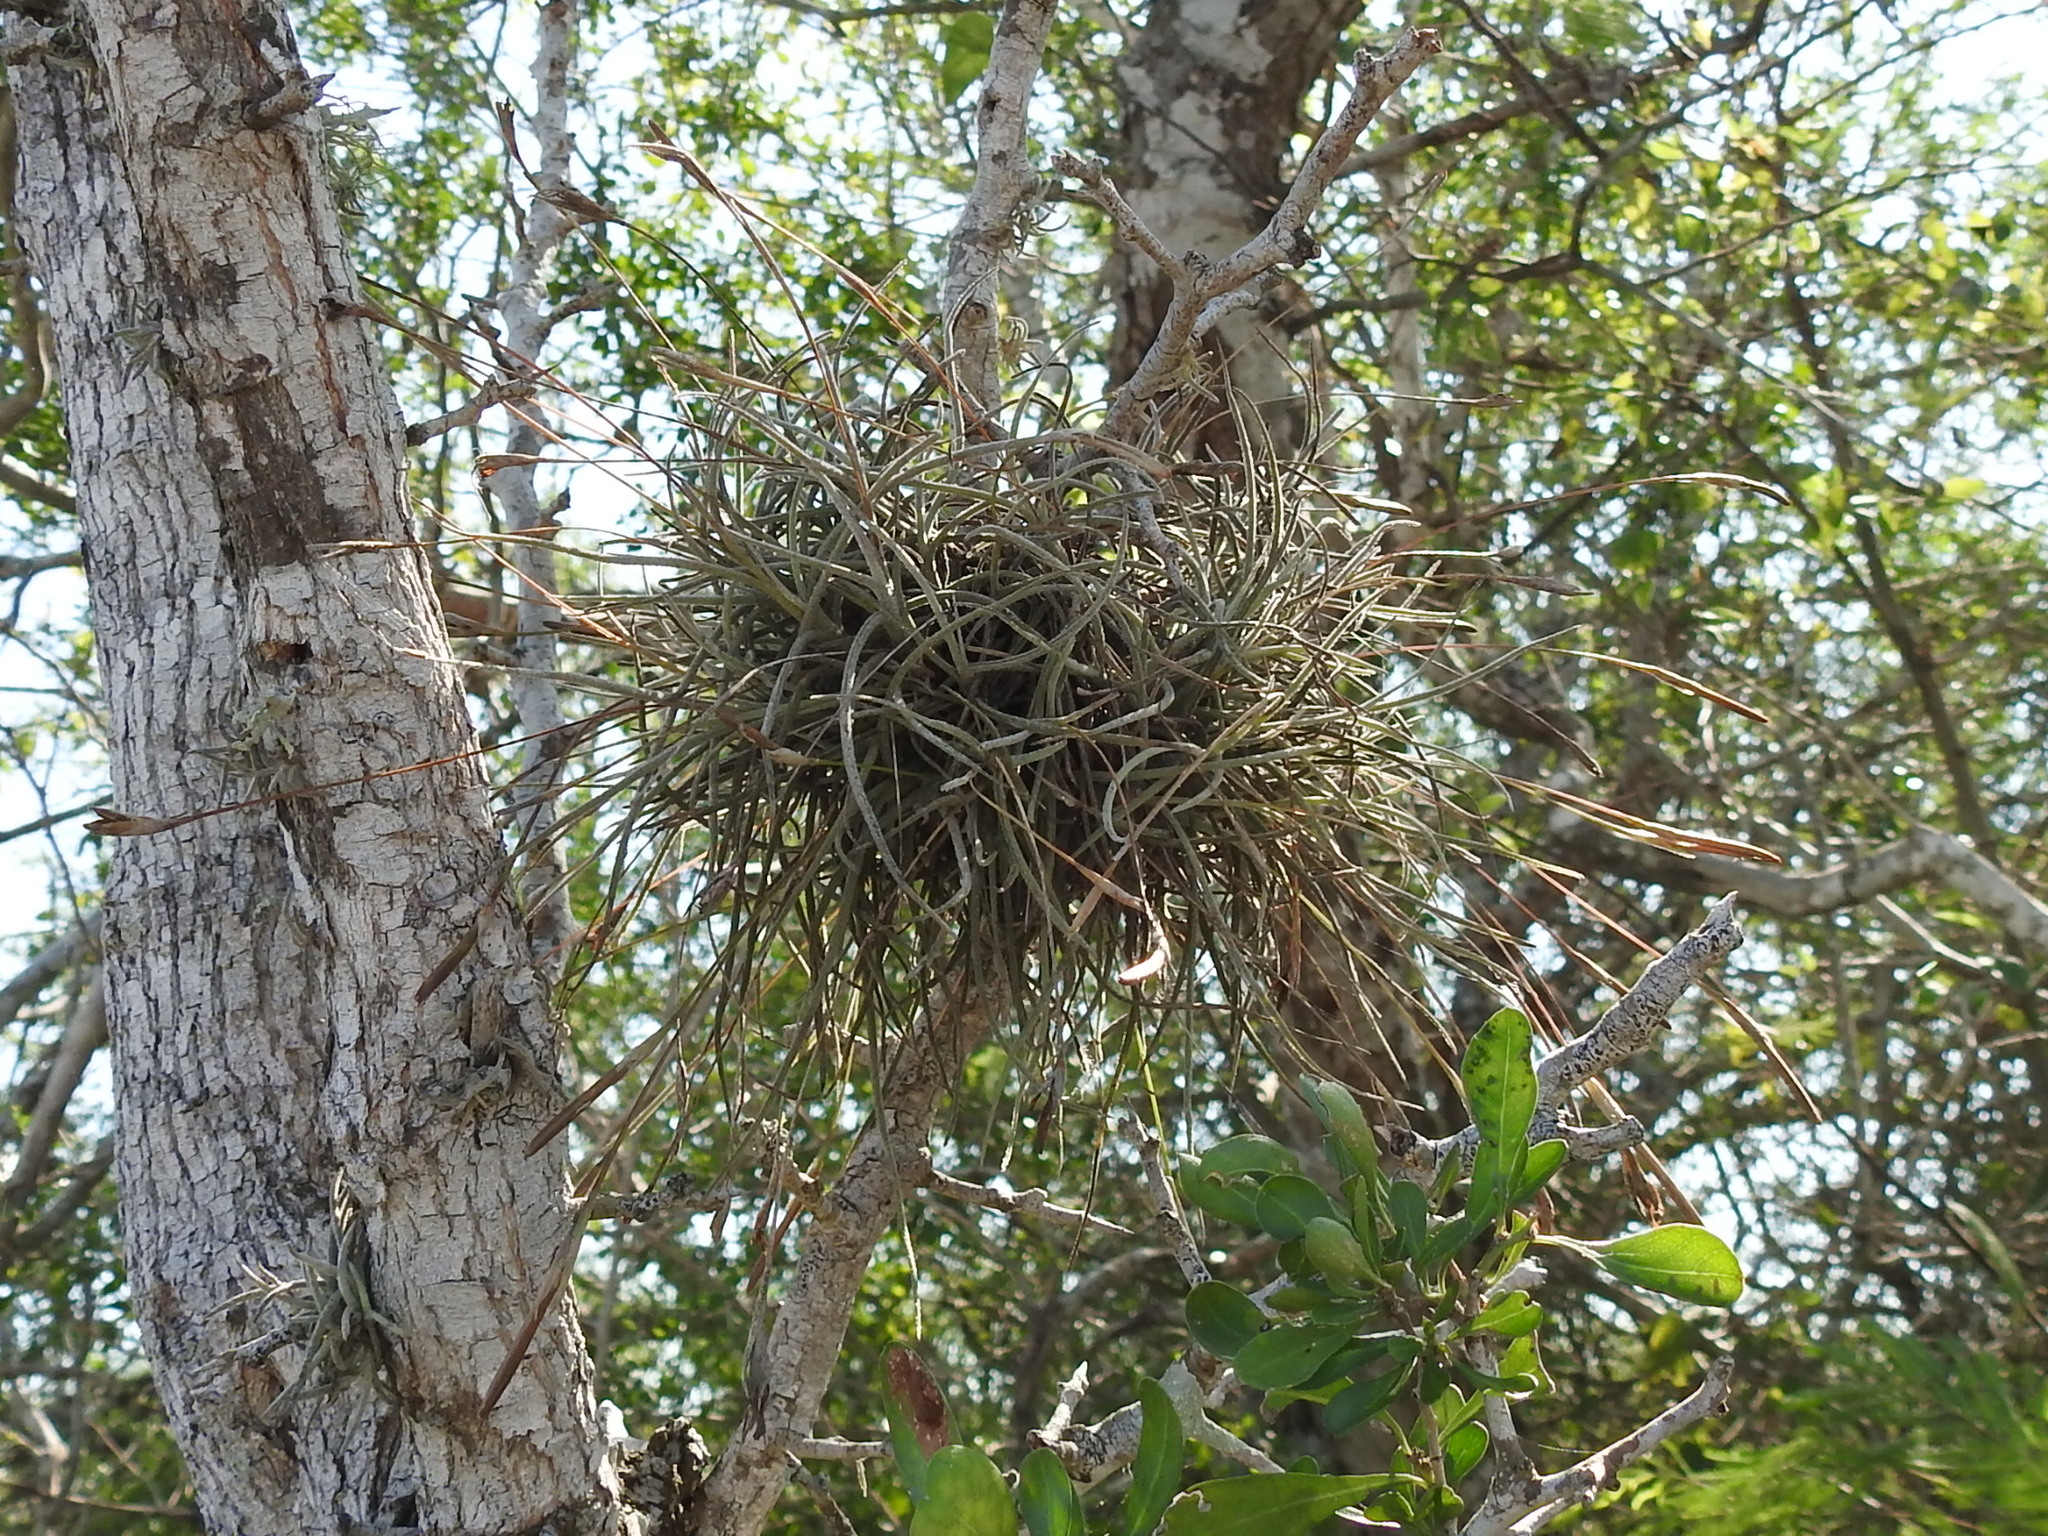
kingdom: Plantae
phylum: Tracheophyta
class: Liliopsida
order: Poales
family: Bromeliaceae
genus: Tillandsia
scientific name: Tillandsia recurvata
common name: Small ballmoss
